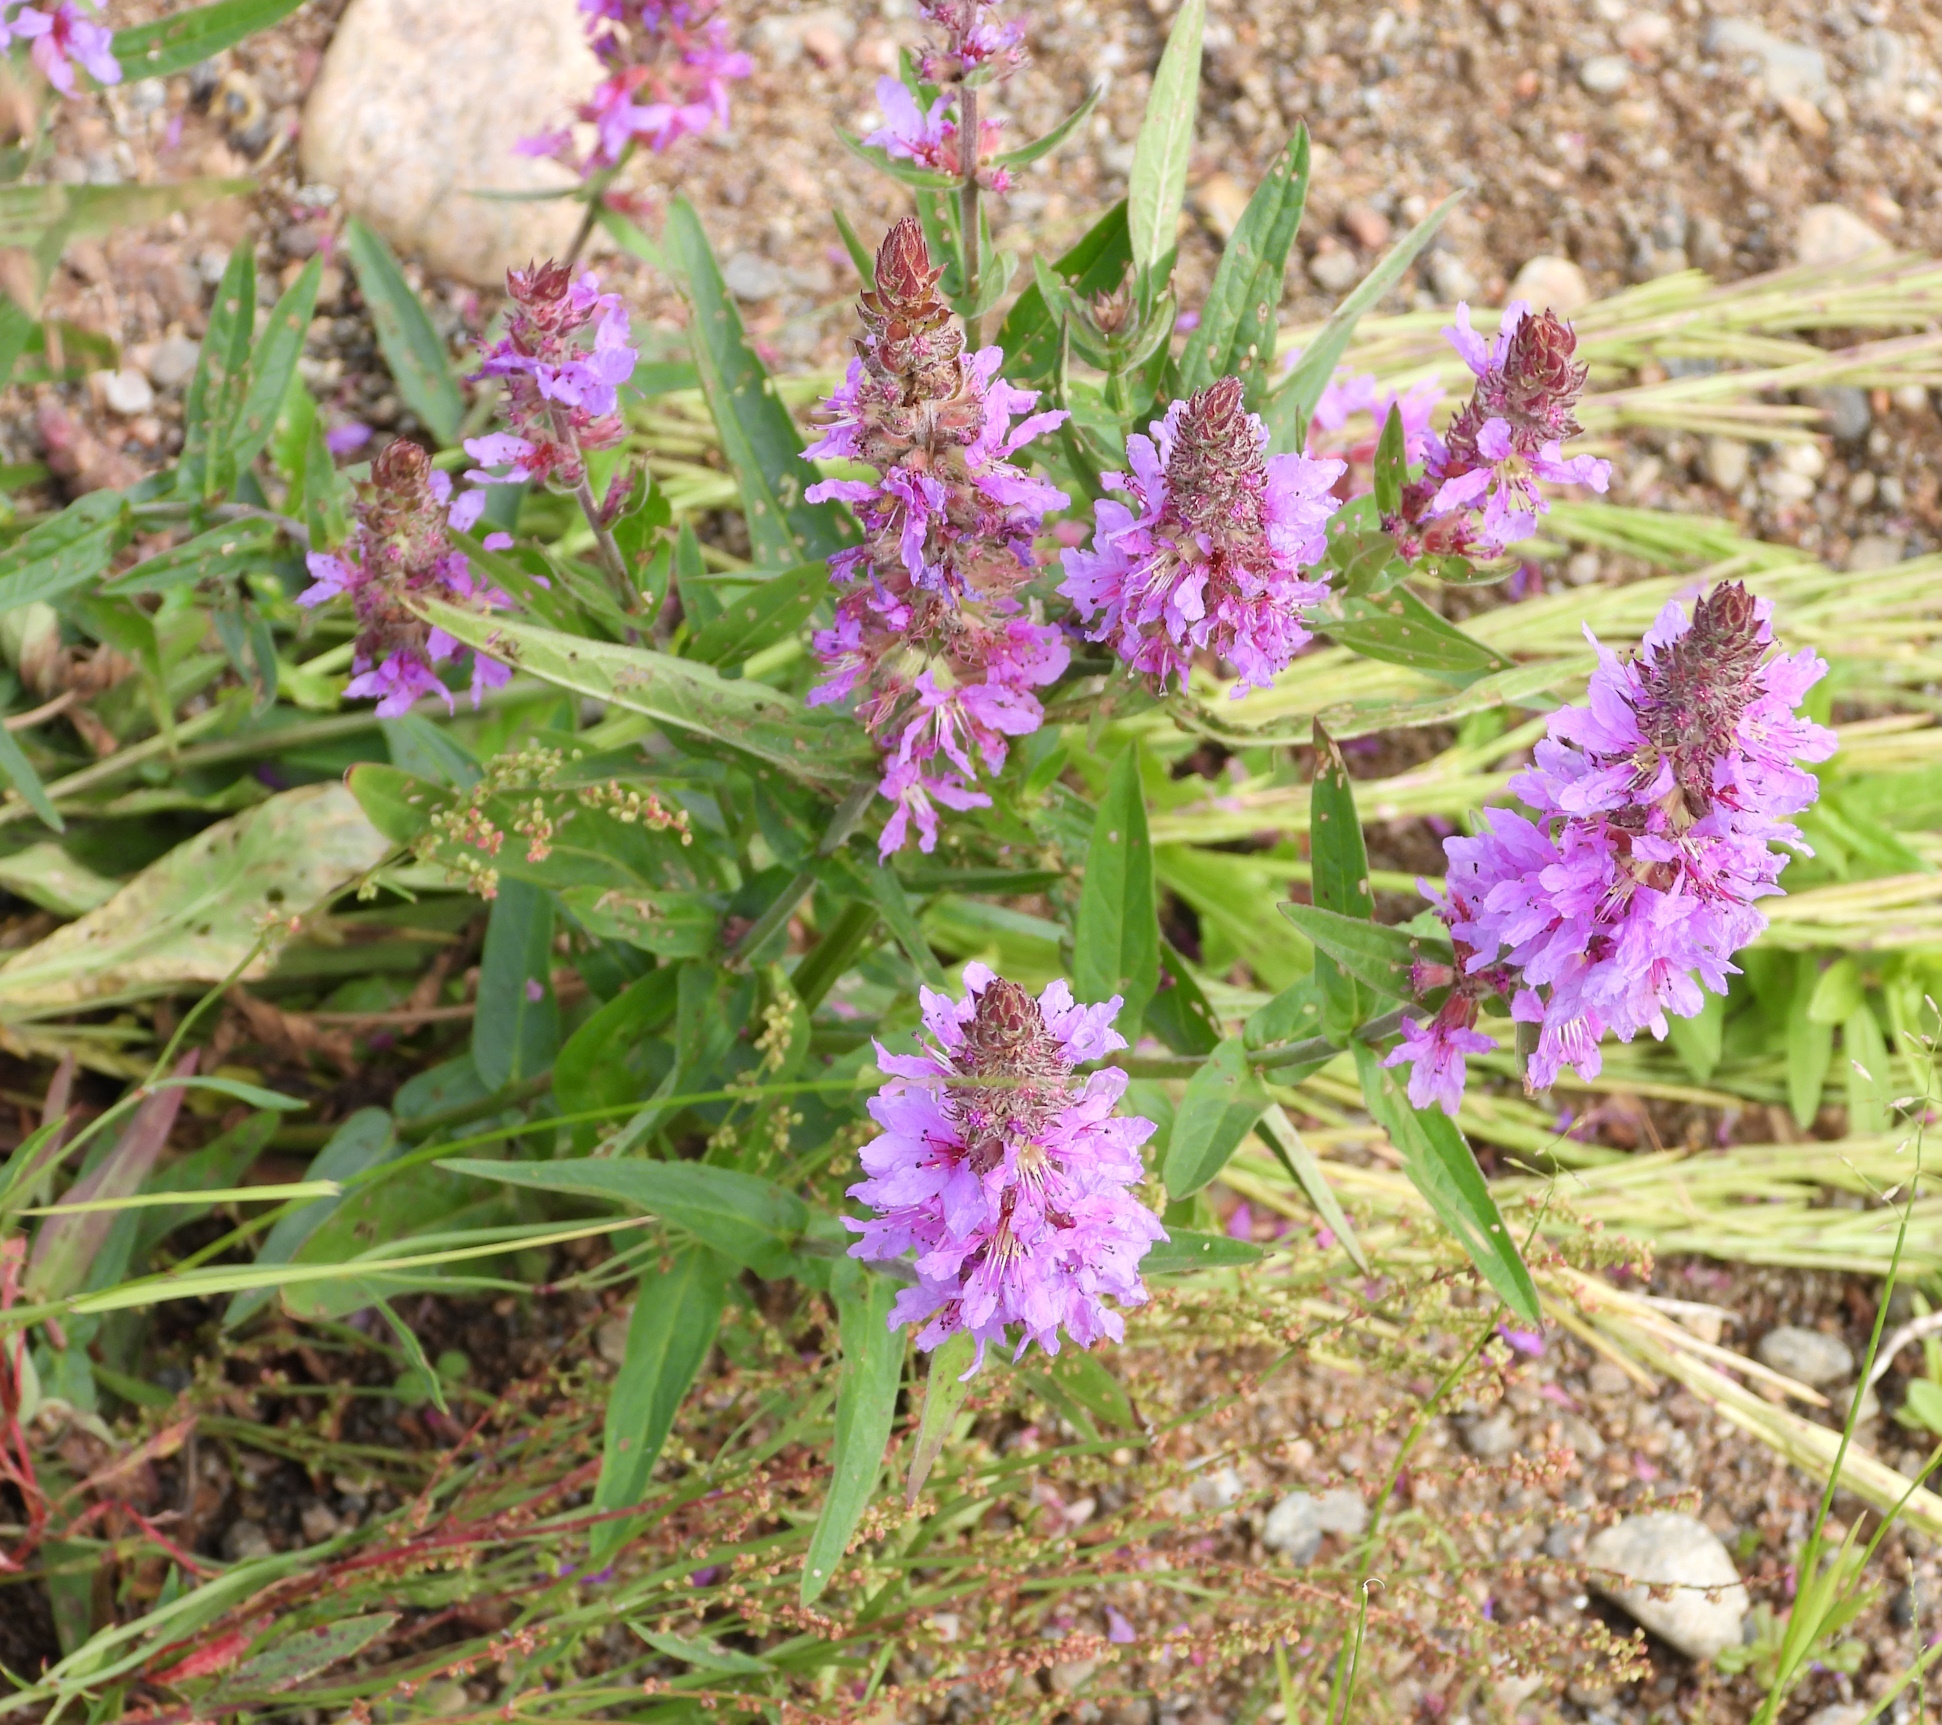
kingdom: Plantae
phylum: Tracheophyta
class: Magnoliopsida
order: Myrtales
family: Lythraceae
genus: Lythrum
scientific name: Lythrum salicaria
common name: Purple loosestrife
